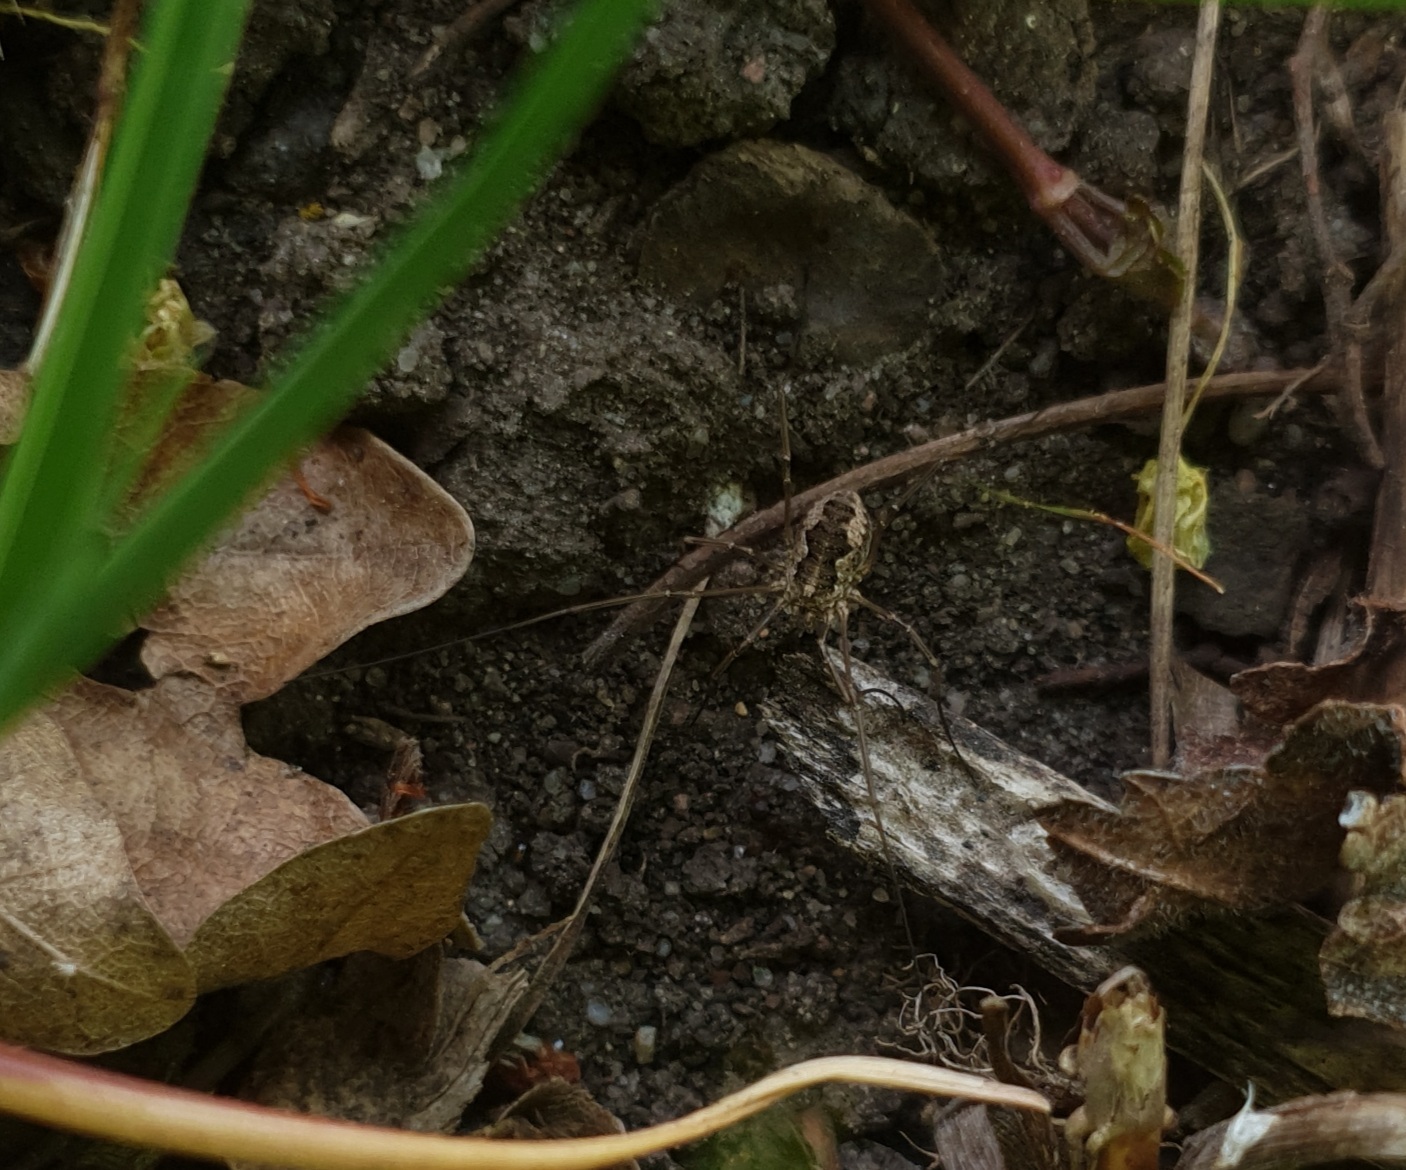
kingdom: Animalia
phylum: Arthropoda
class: Arachnida
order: Opiliones
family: Phalangiidae
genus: Phalangium
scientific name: Phalangium opilio
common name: Daddy longleg
